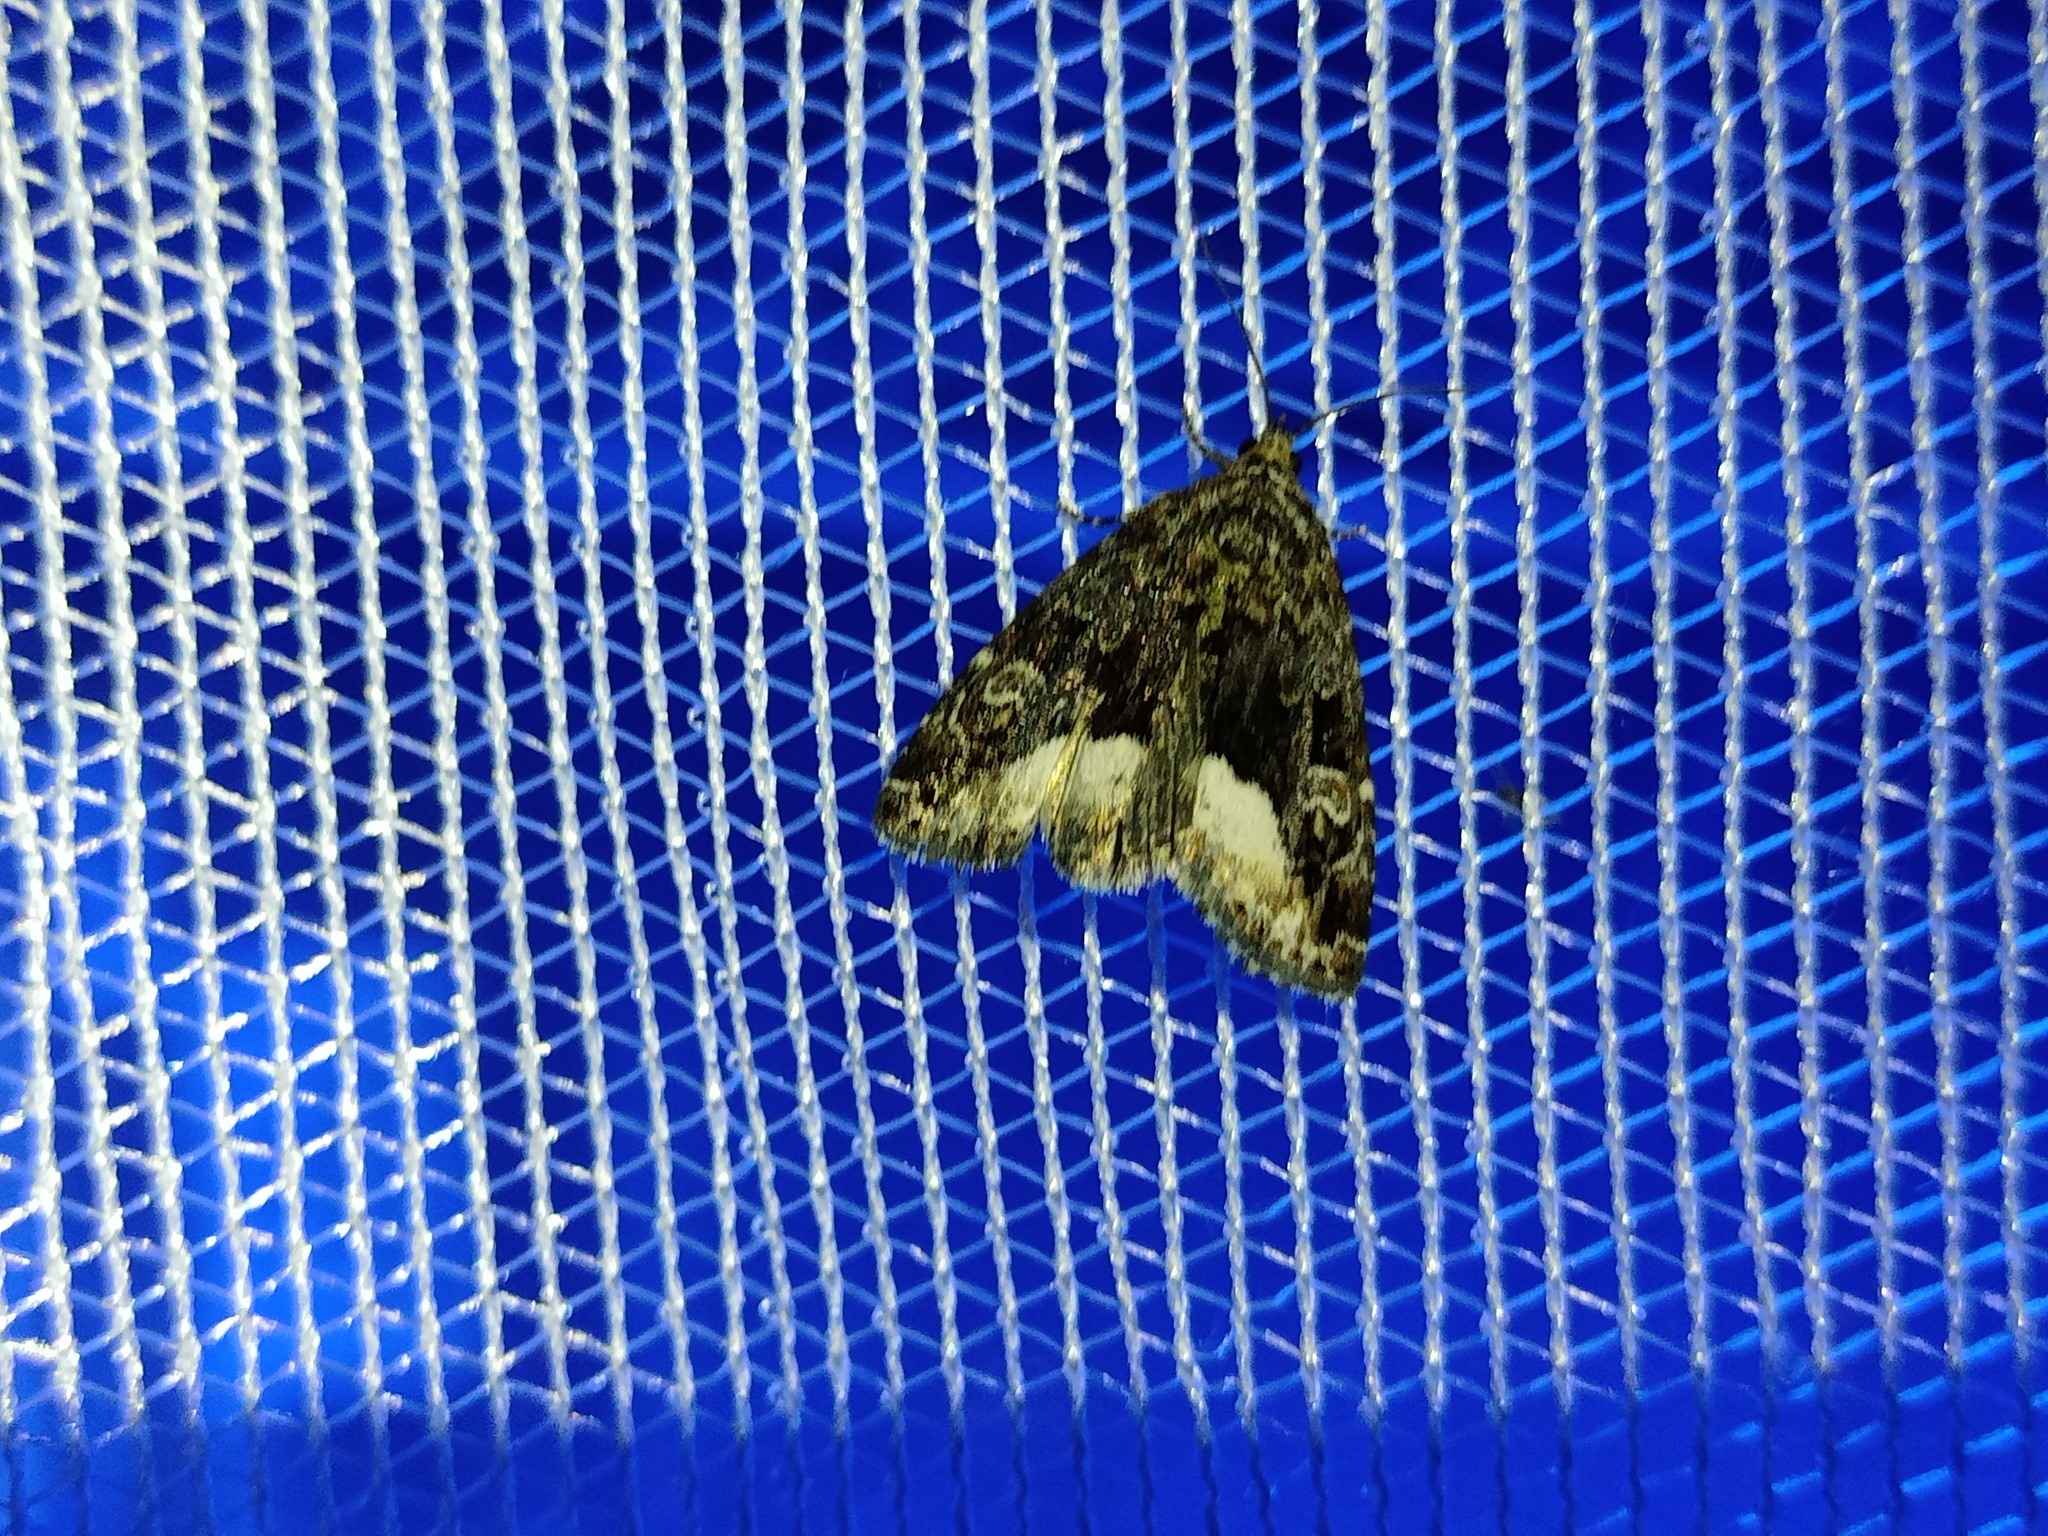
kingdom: Animalia
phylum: Arthropoda
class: Insecta
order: Lepidoptera
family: Noctuidae
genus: Deltote
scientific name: Deltote pygarga
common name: Marbled white spot
